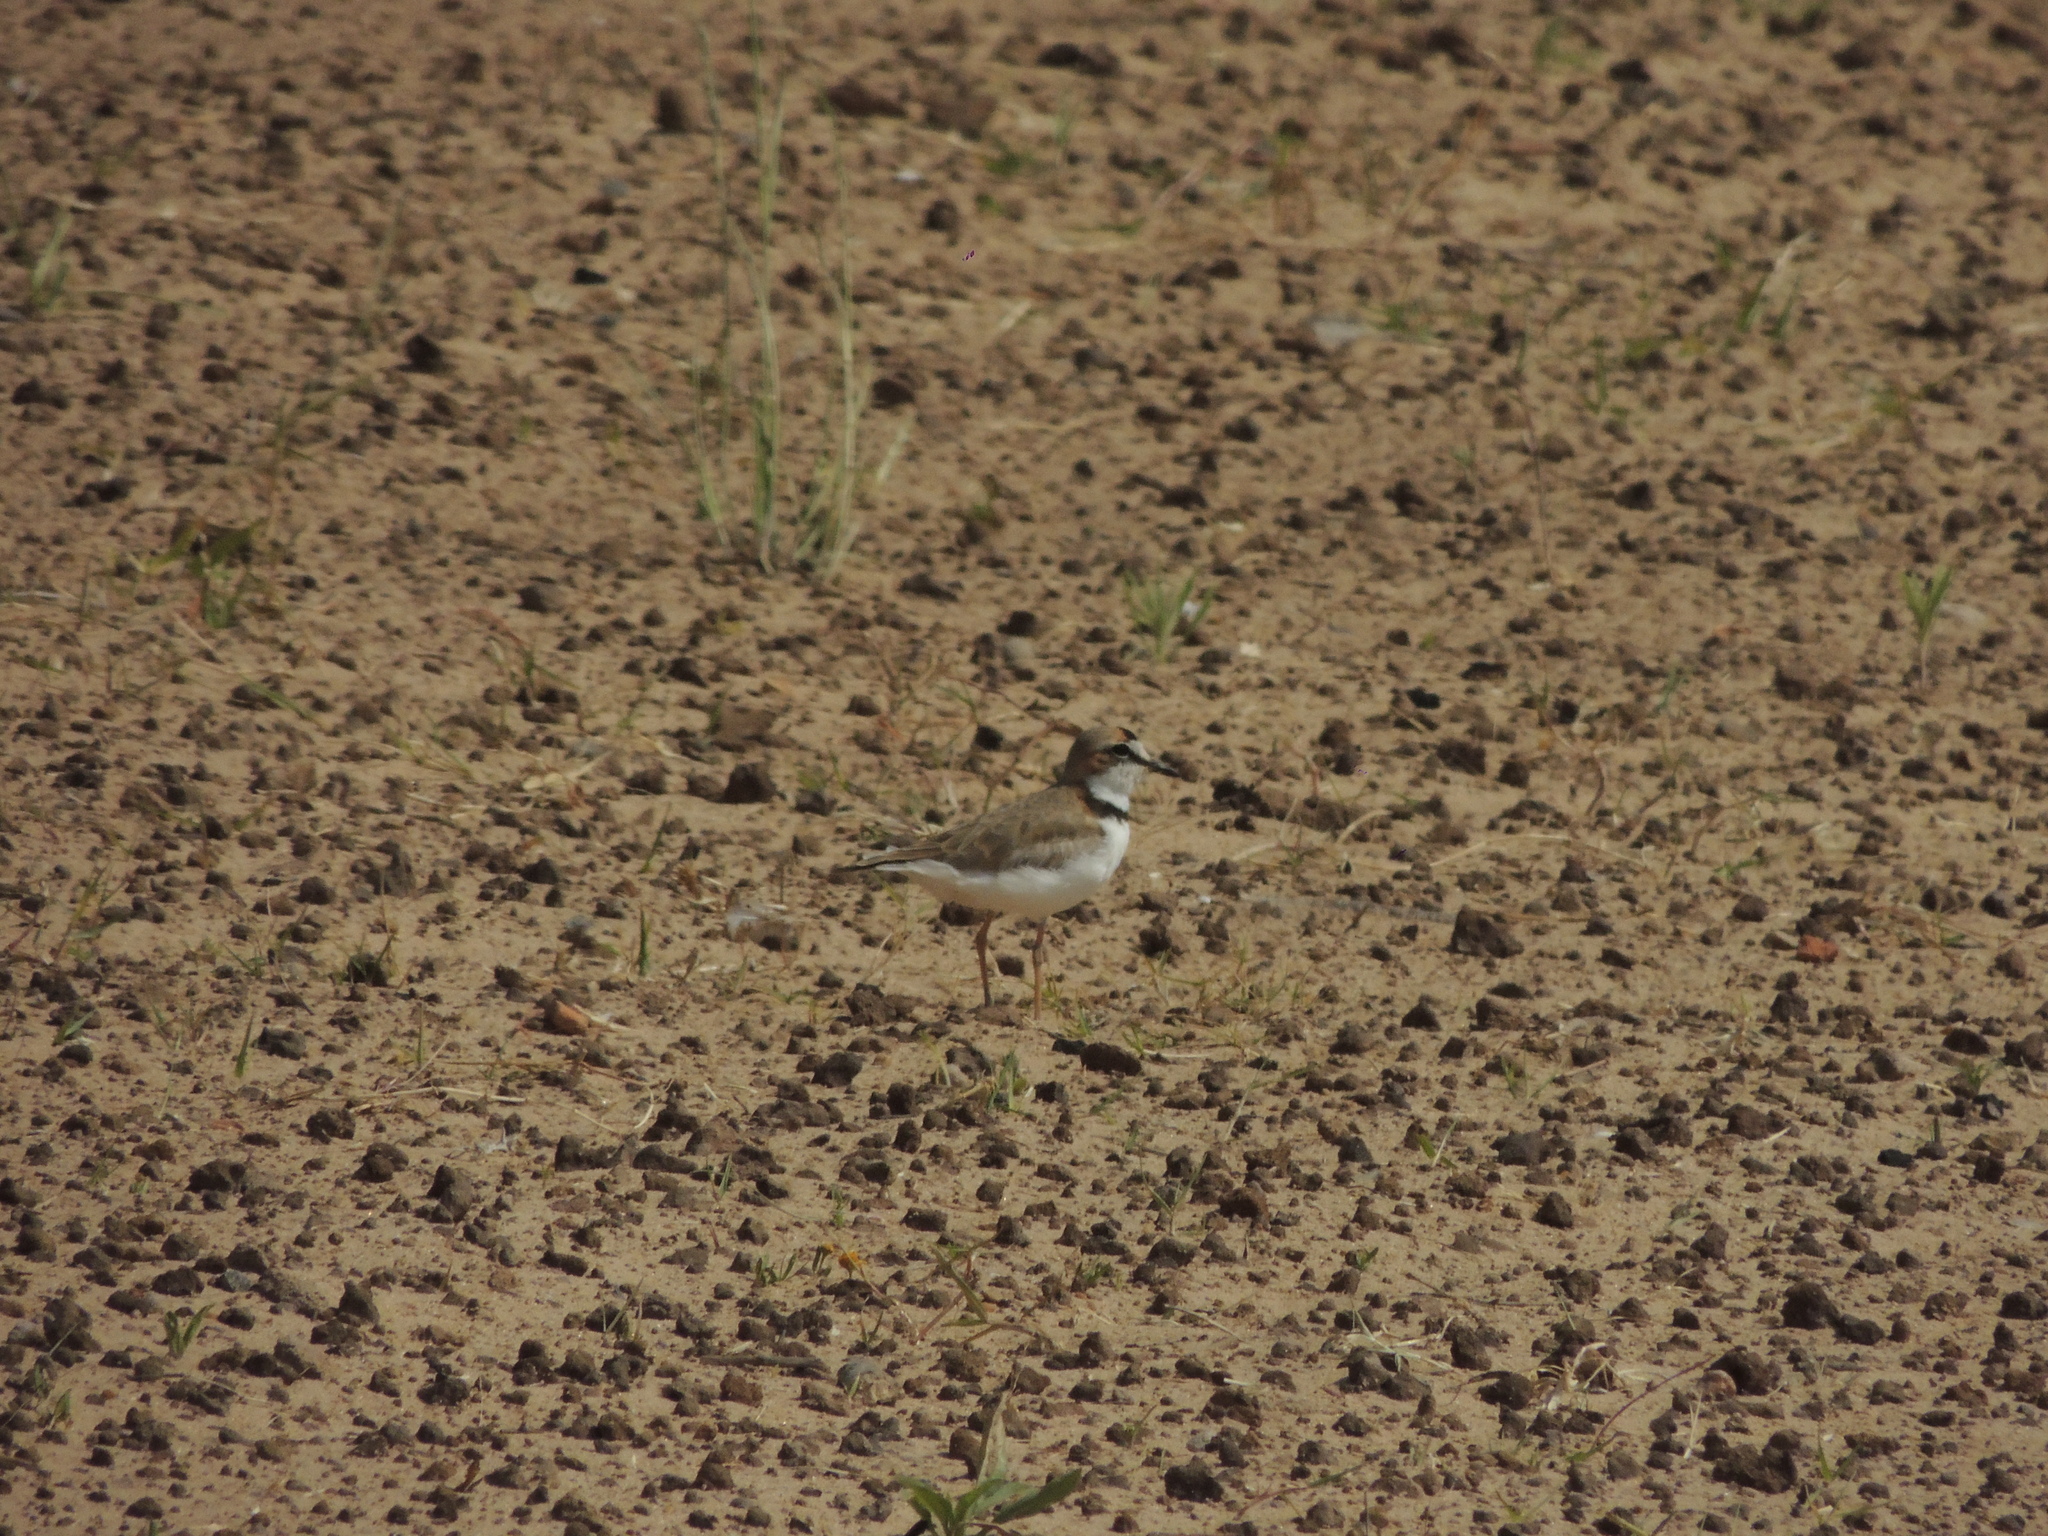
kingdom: Animalia
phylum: Chordata
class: Aves
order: Charadriiformes
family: Charadriidae
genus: Anarhynchus
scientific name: Anarhynchus
